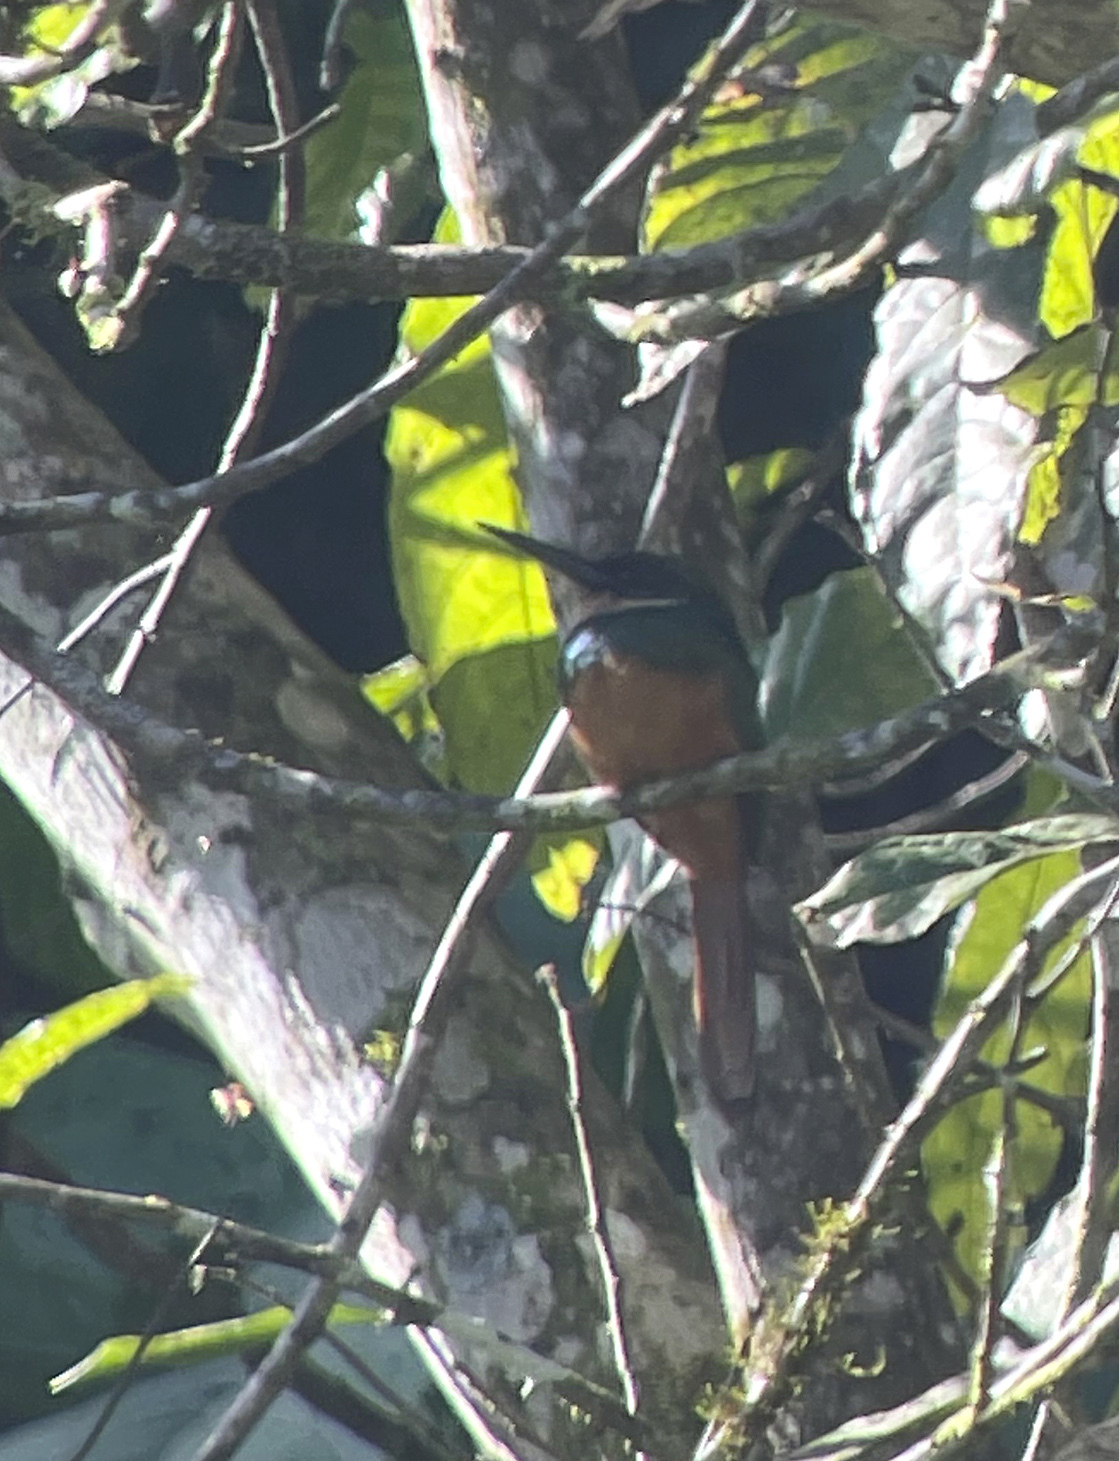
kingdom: Animalia
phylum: Chordata
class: Aves
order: Piciformes
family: Galbulidae
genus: Galbula
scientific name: Galbula ruficauda
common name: Rufous-tailed jacamar
